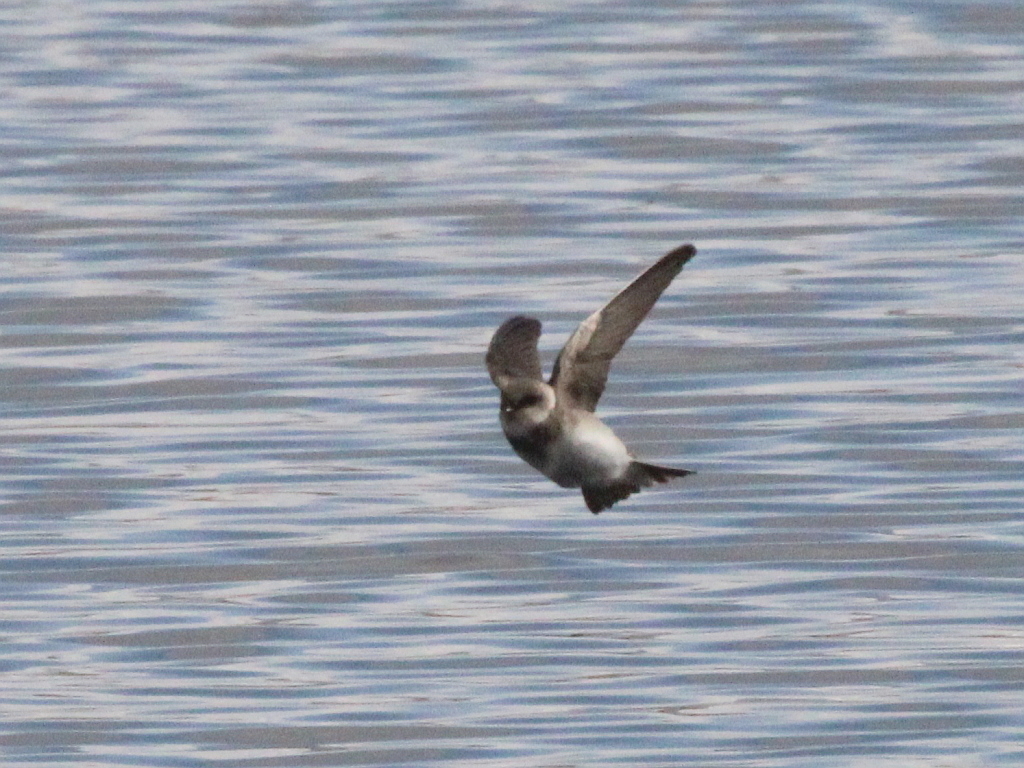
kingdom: Animalia
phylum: Chordata
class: Aves
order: Passeriformes
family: Hirundinidae
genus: Riparia
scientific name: Riparia riparia
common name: Sand martin
